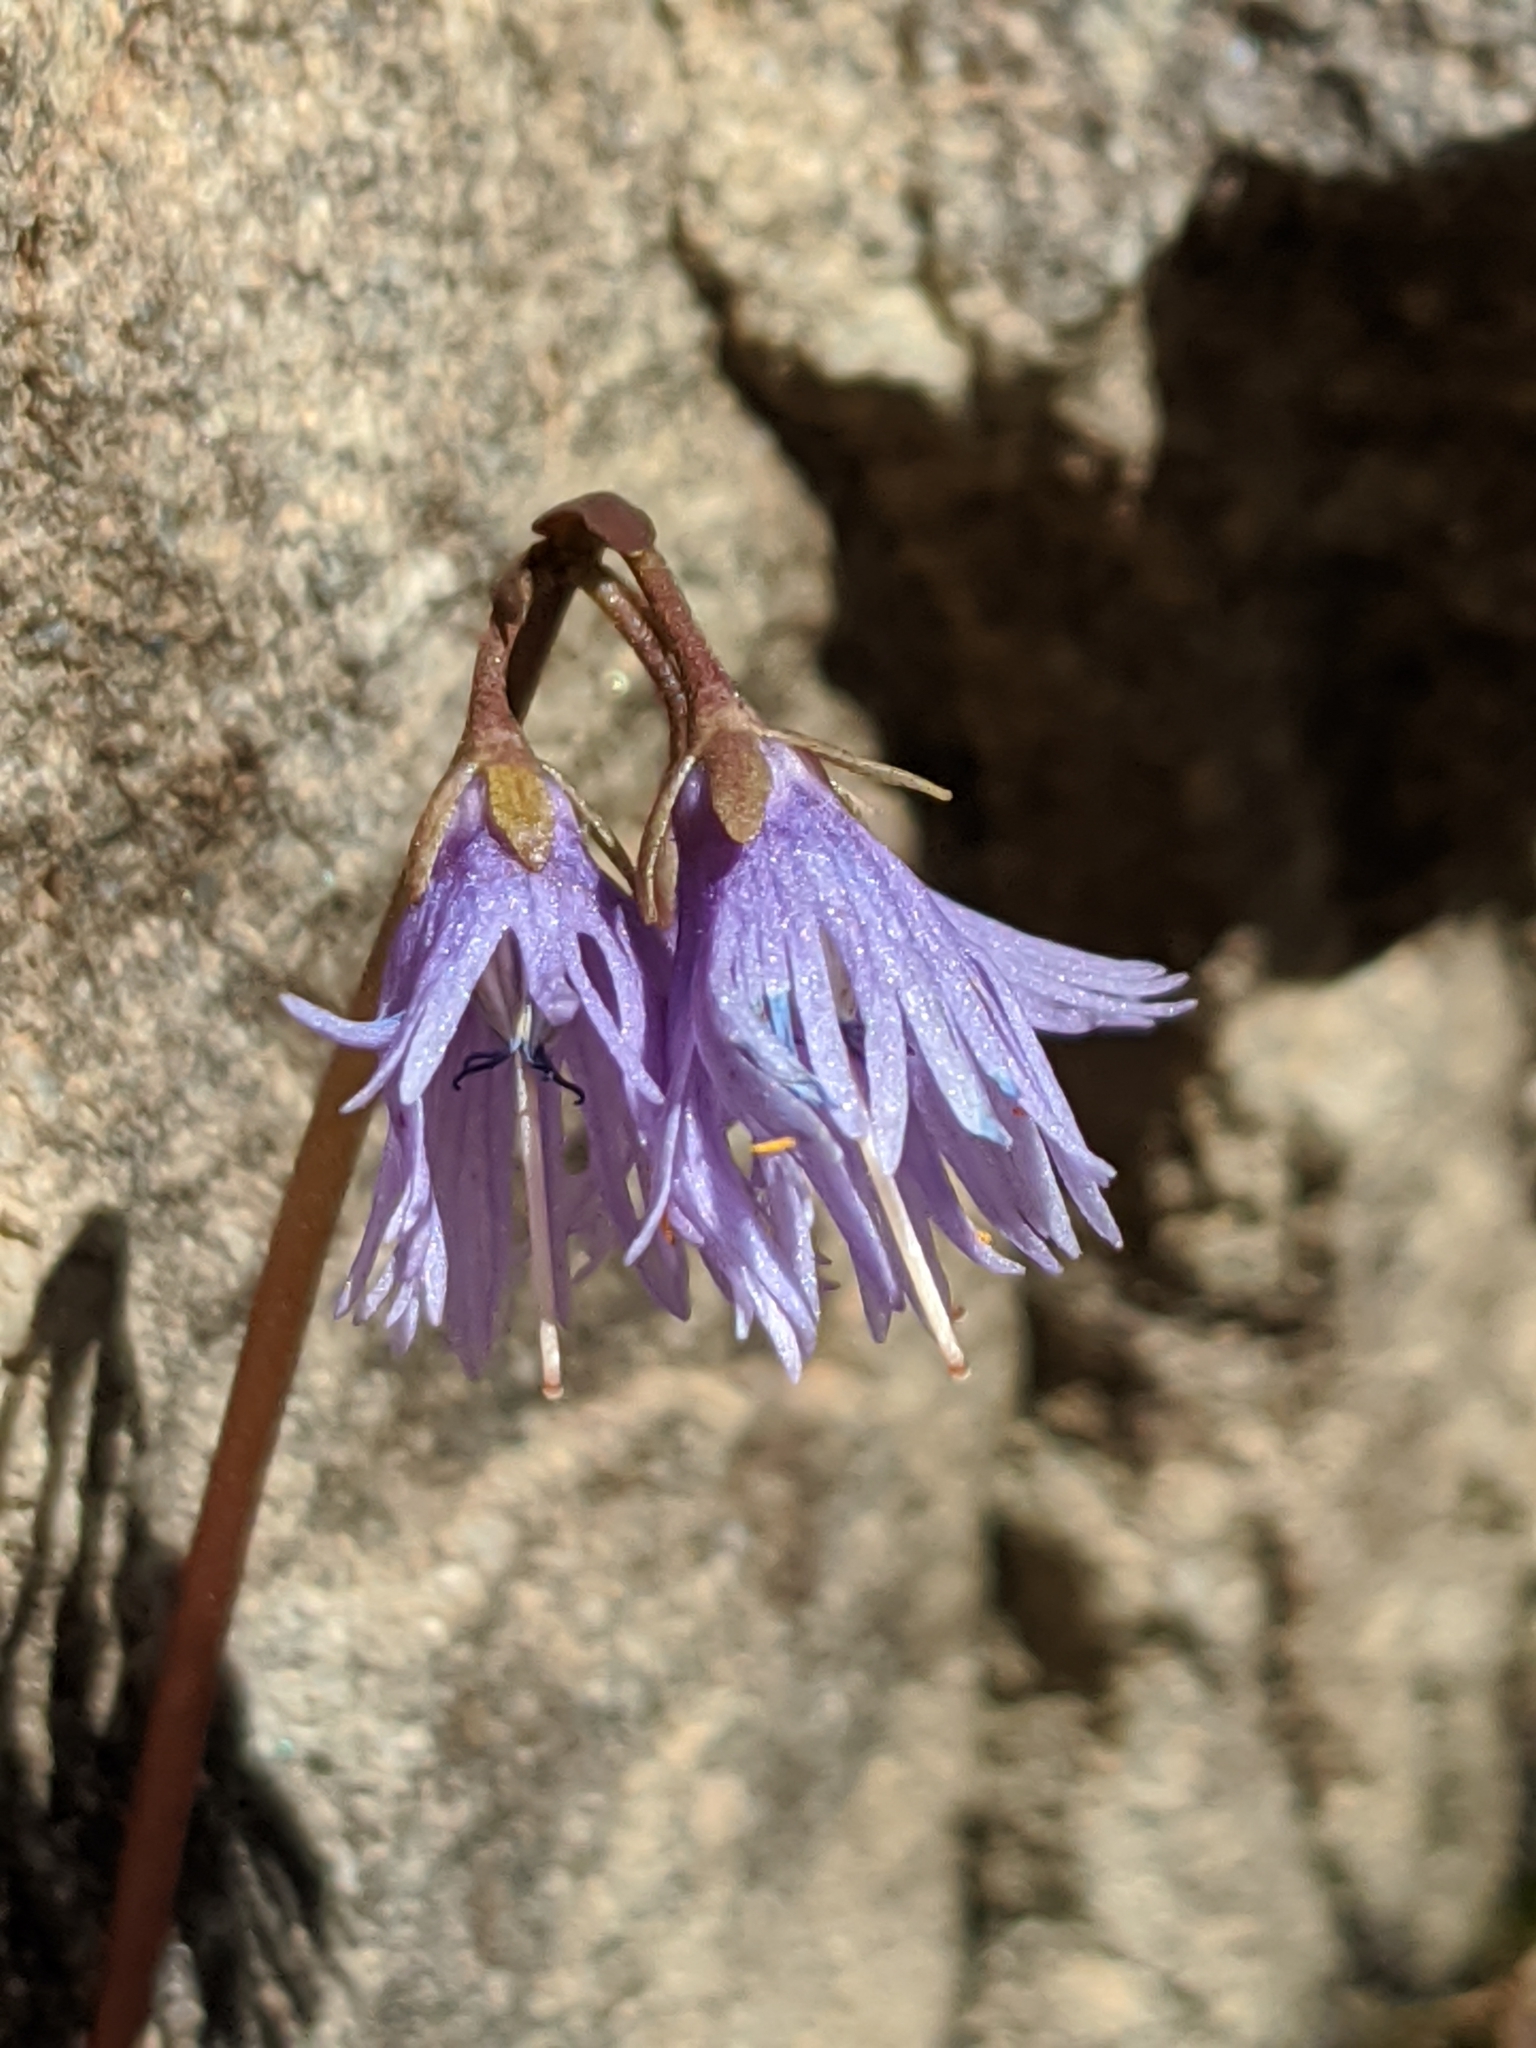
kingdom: Plantae
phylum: Tracheophyta
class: Magnoliopsida
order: Ericales
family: Primulaceae
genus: Soldanella
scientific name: Soldanella alpina
